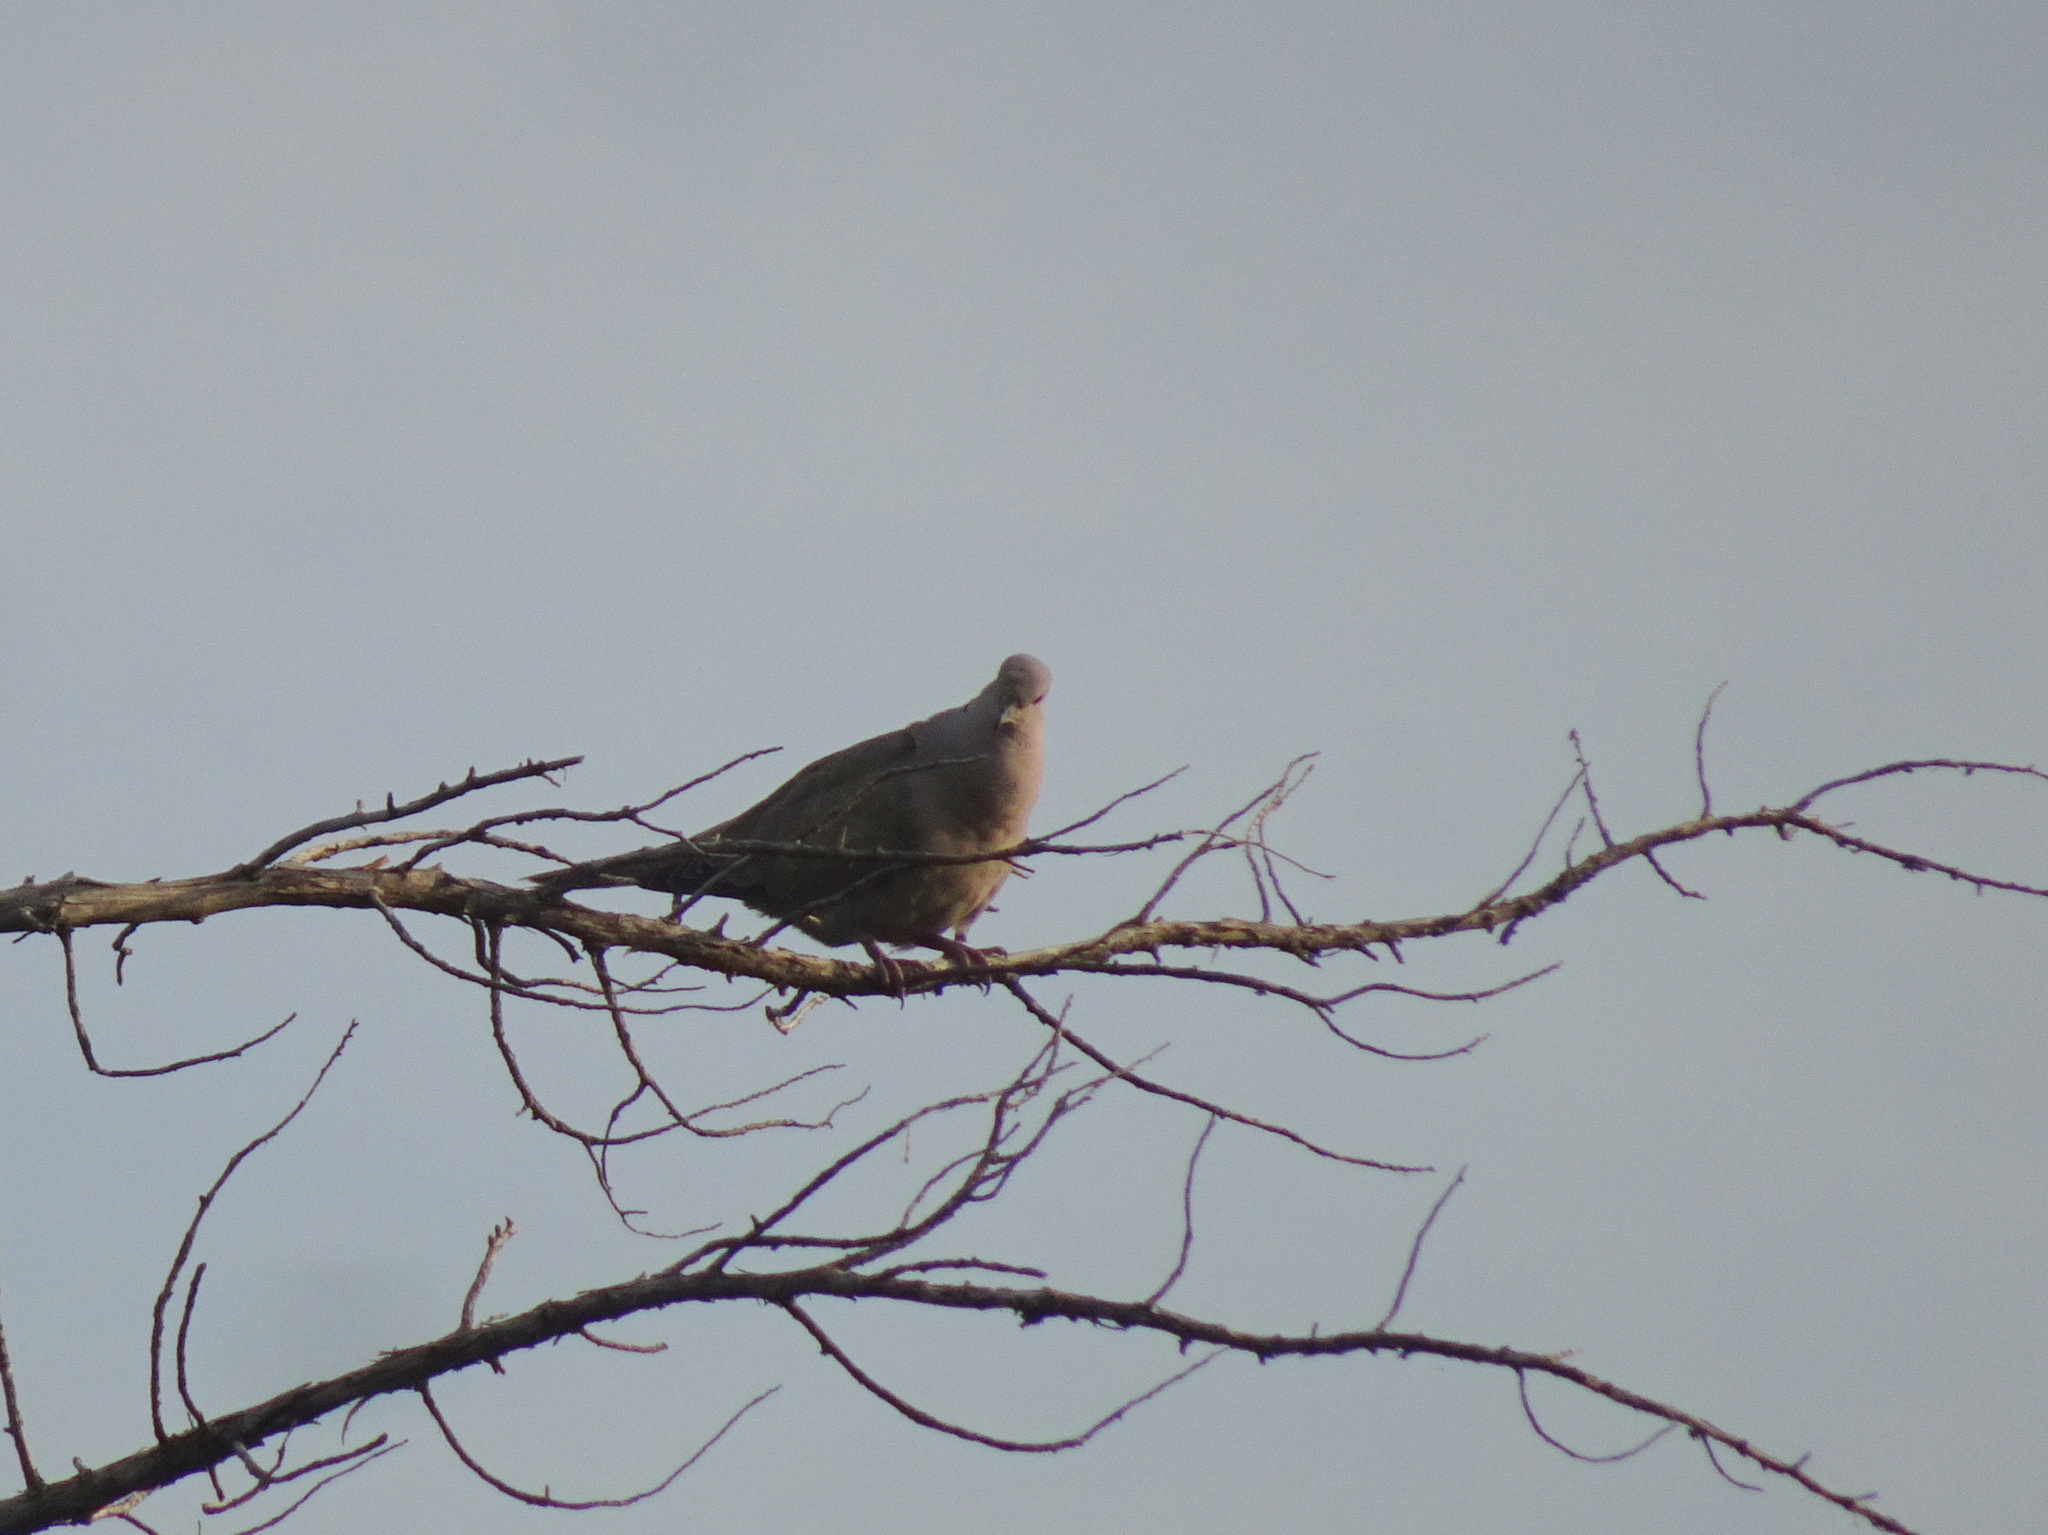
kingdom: Animalia
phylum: Chordata
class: Aves
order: Columbiformes
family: Columbidae
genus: Streptopelia
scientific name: Streptopelia decaocto
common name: Eurasian collared dove
